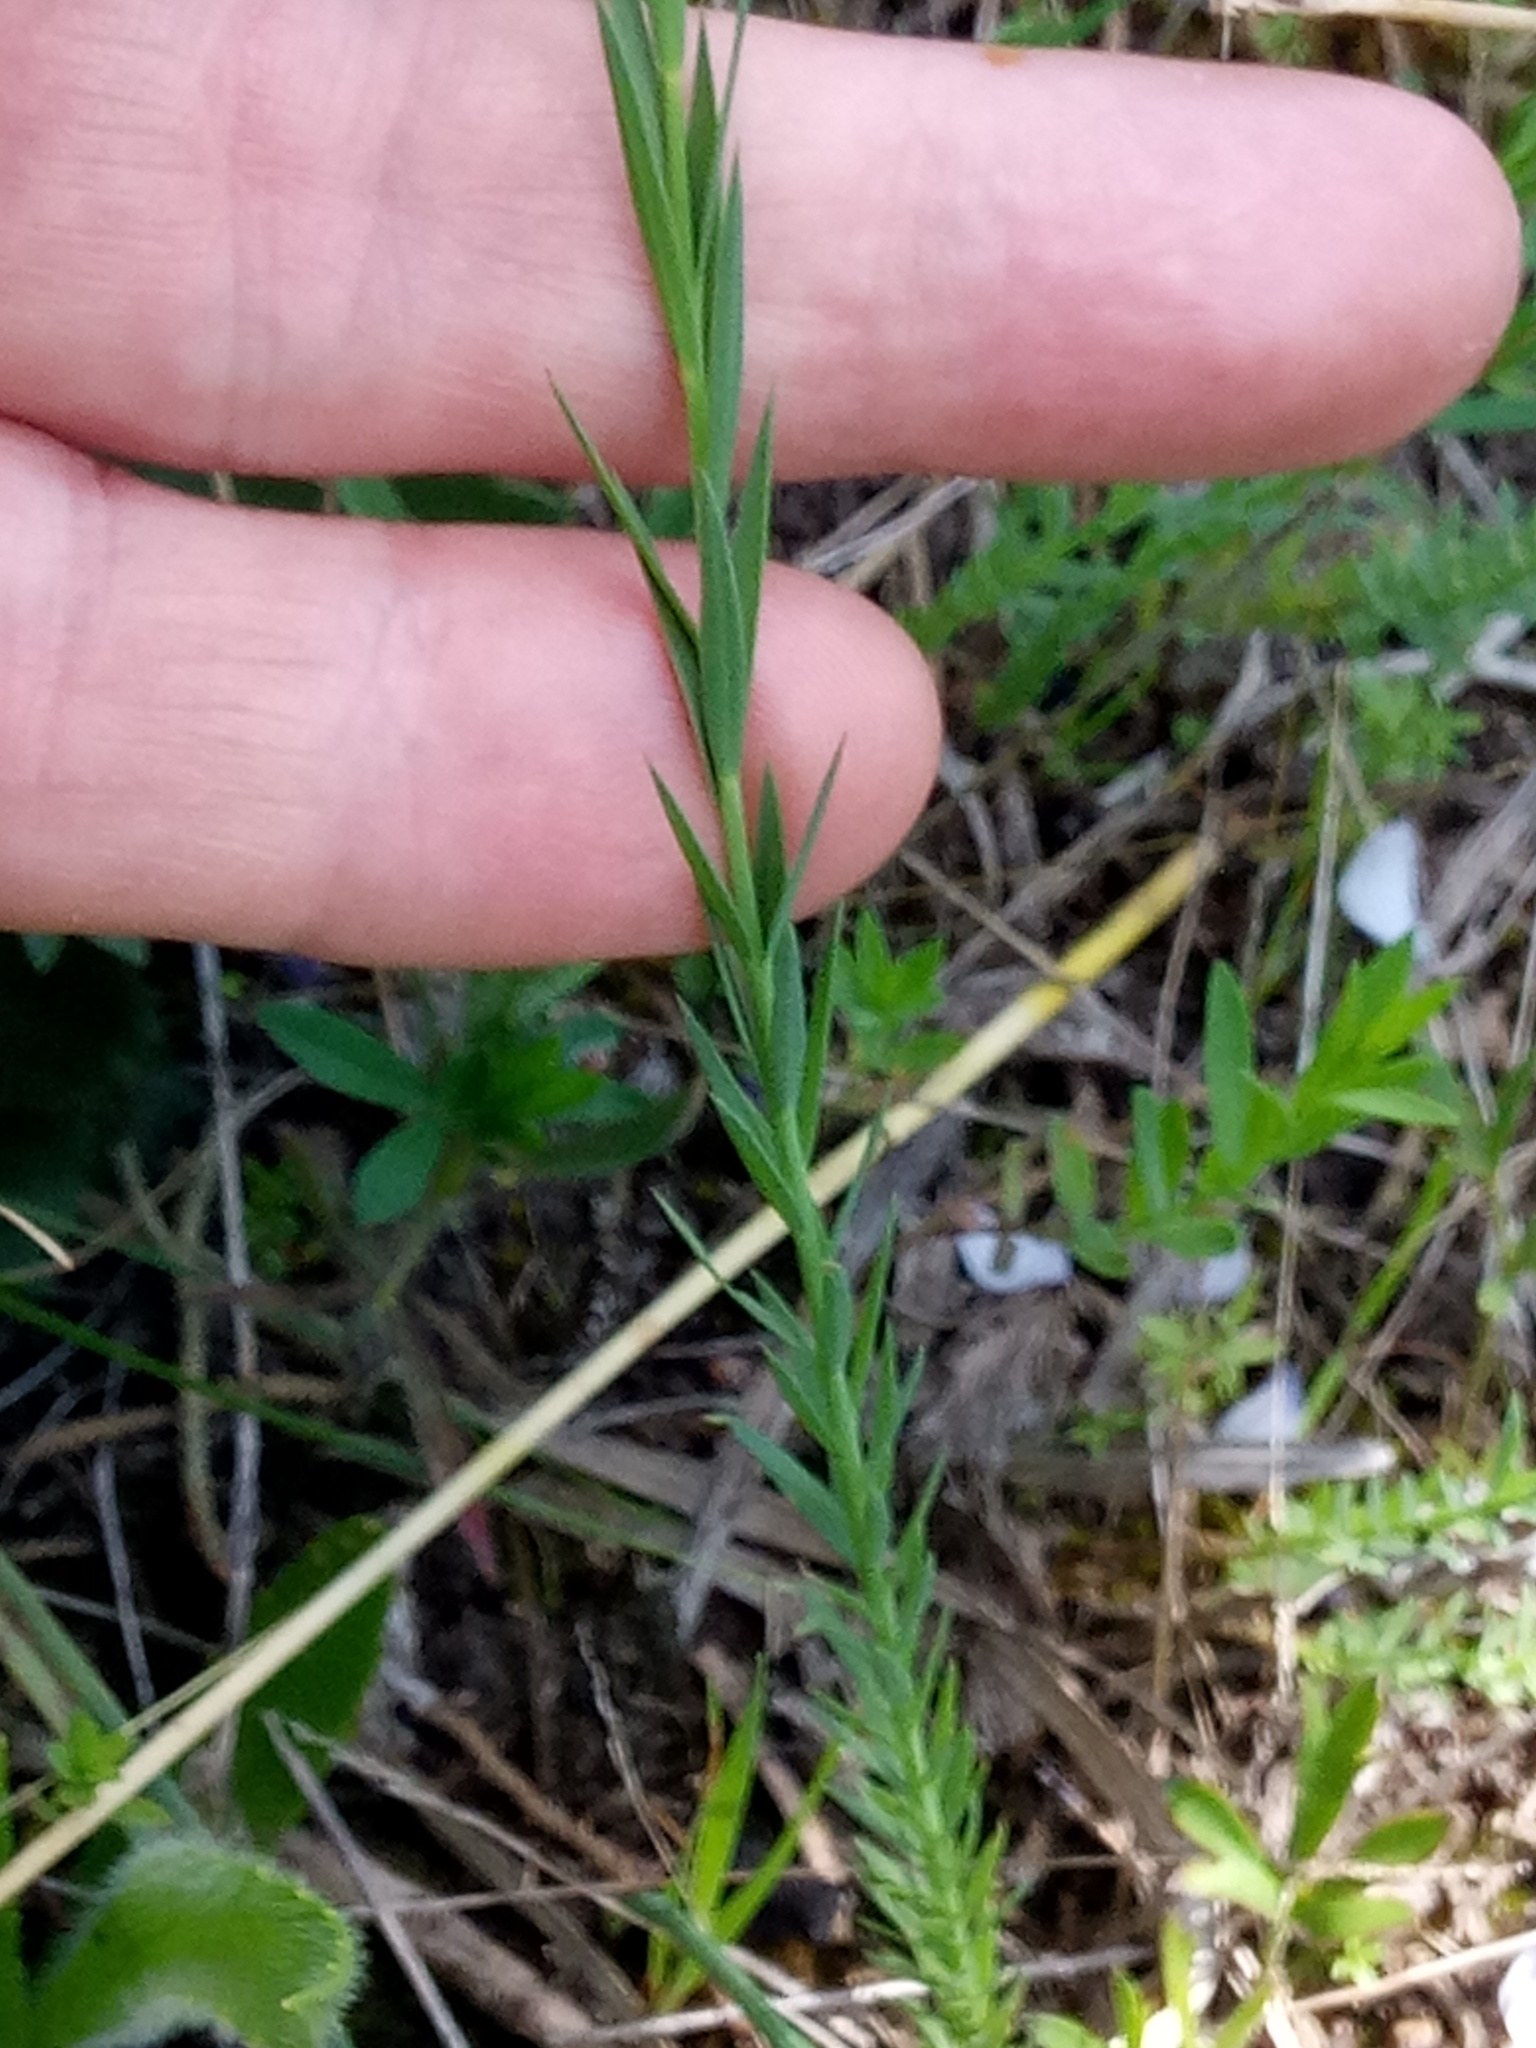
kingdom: Plantae
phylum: Tracheophyta
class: Magnoliopsida
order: Malpighiales
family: Linaceae
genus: Linum
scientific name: Linum bienne
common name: Pale flax
